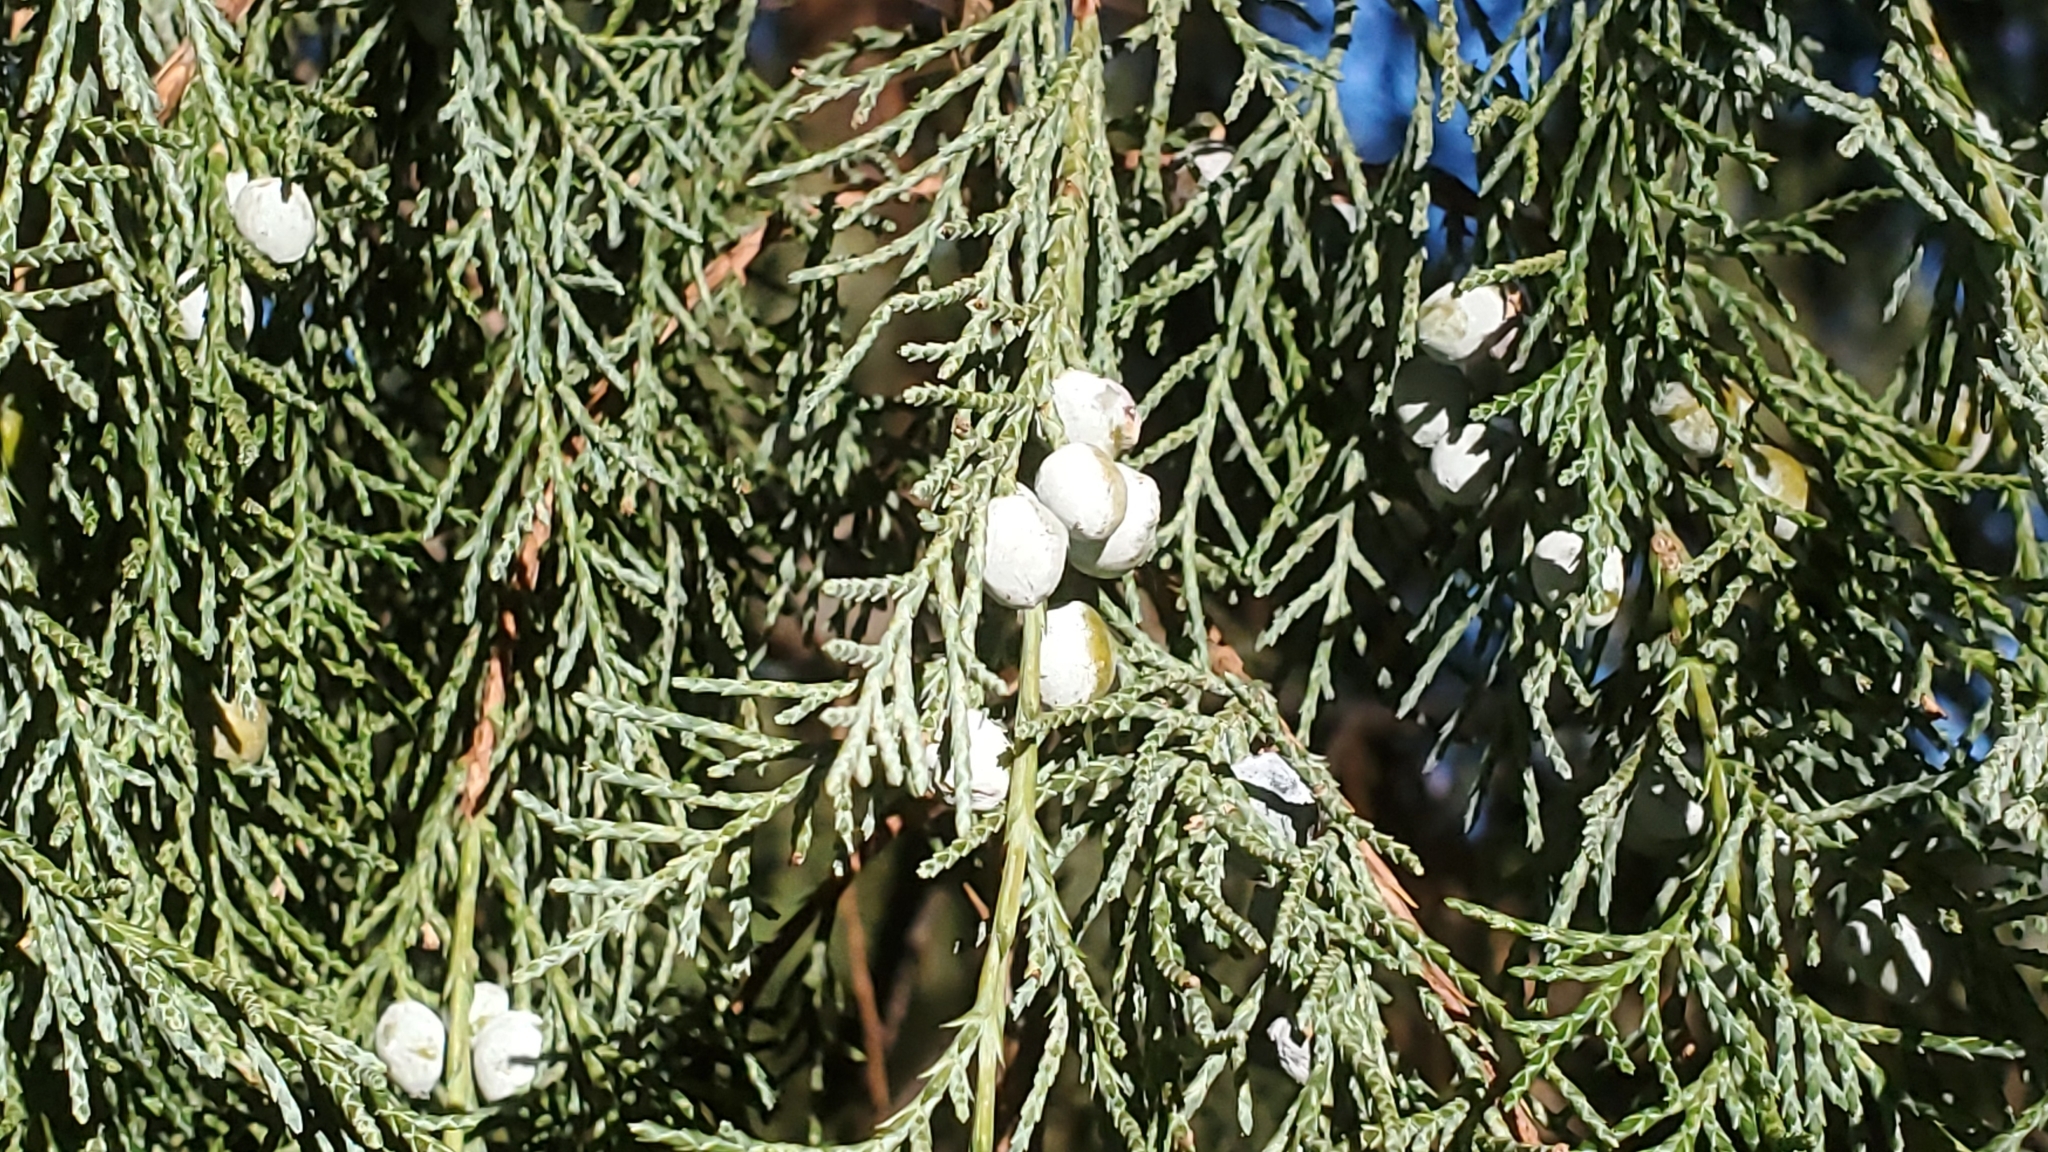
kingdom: Plantae
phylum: Tracheophyta
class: Pinopsida
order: Pinales
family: Cupressaceae
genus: Juniperus
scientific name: Juniperus scopulorum
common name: Rocky mountain juniper
